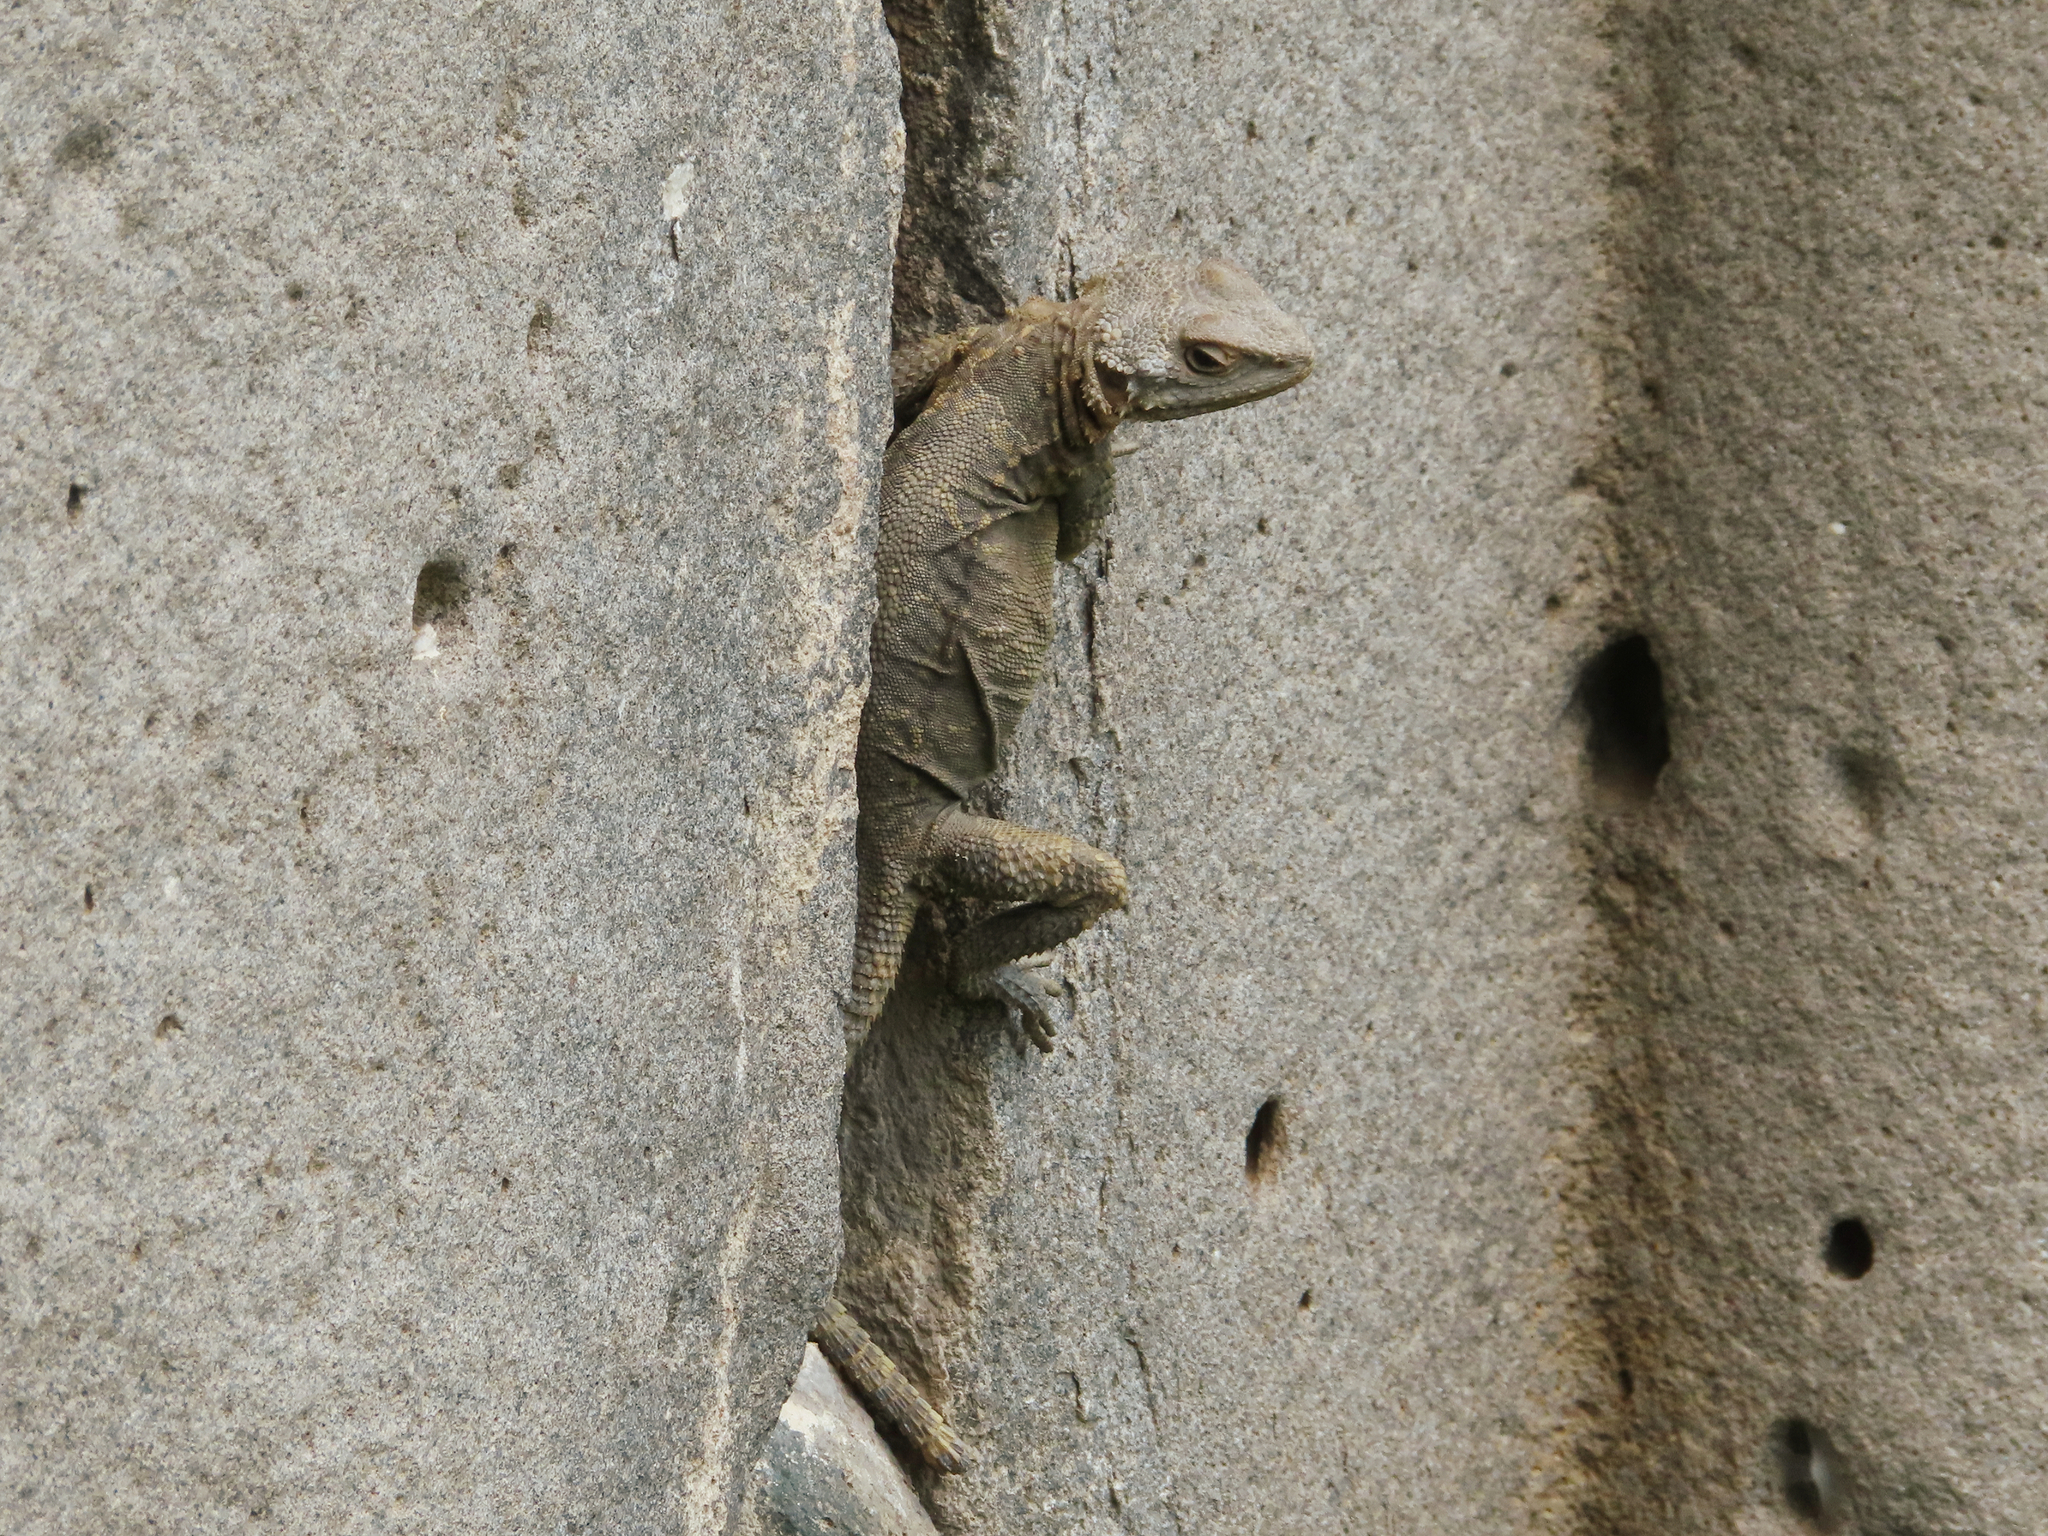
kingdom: Animalia
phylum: Chordata
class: Squamata
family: Agamidae
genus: Paralaudakia
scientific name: Paralaudakia caucasia
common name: Caucasian agama
